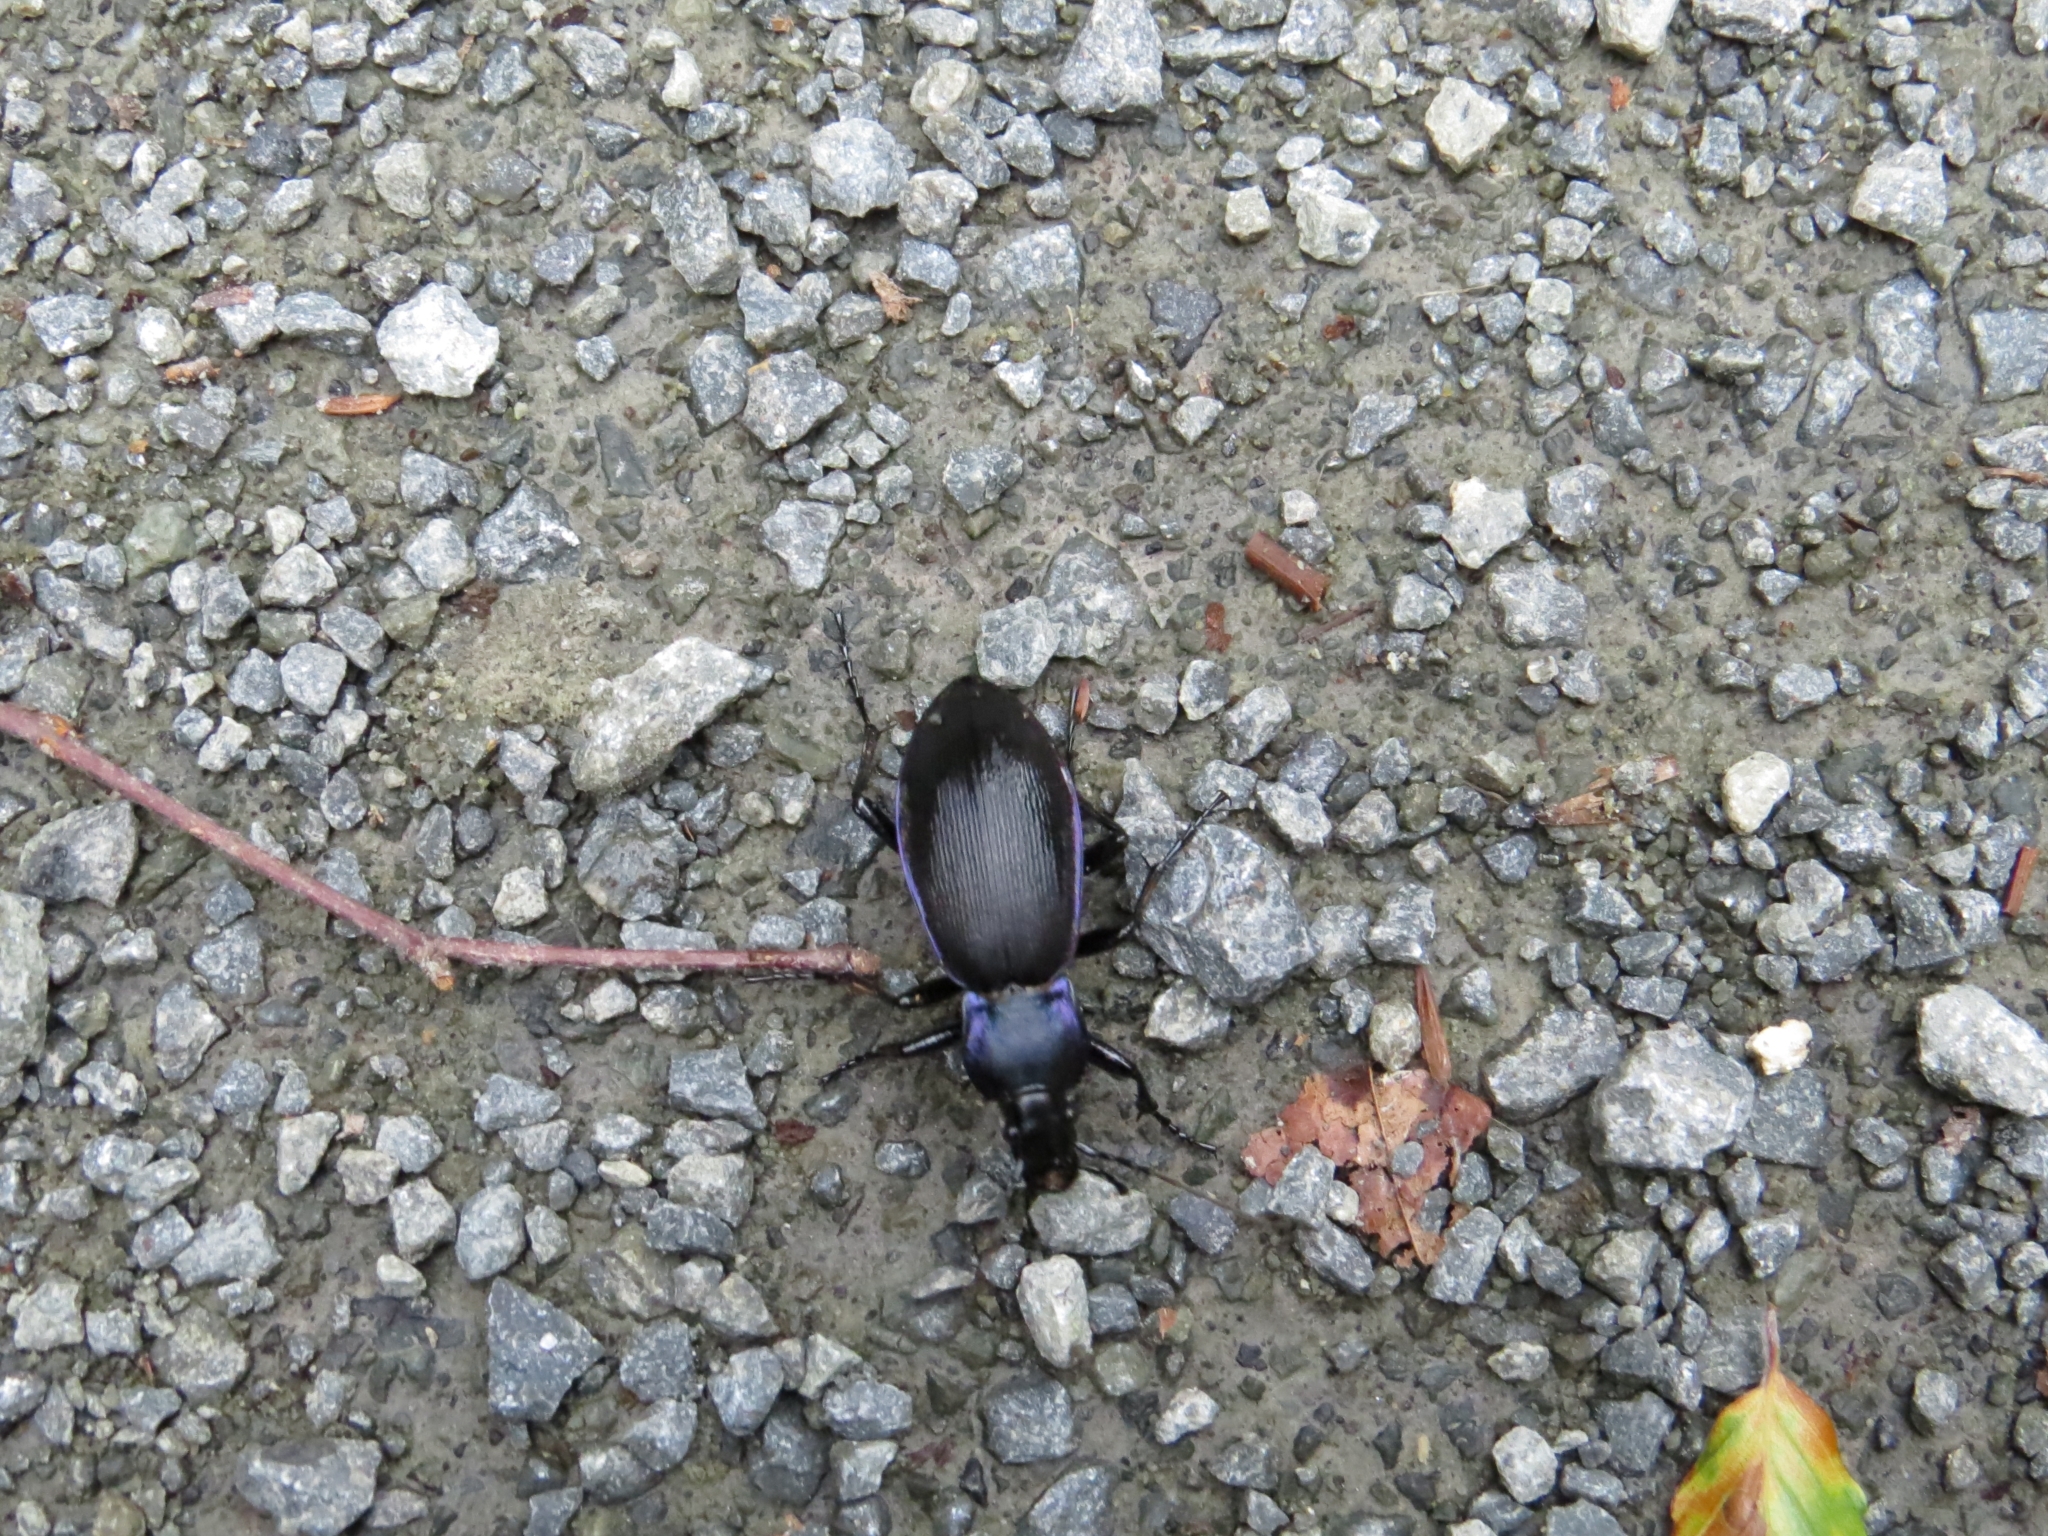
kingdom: Animalia
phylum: Arthropoda
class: Insecta
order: Coleoptera
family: Carabidae
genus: Carabus
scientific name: Carabus purpurascens
